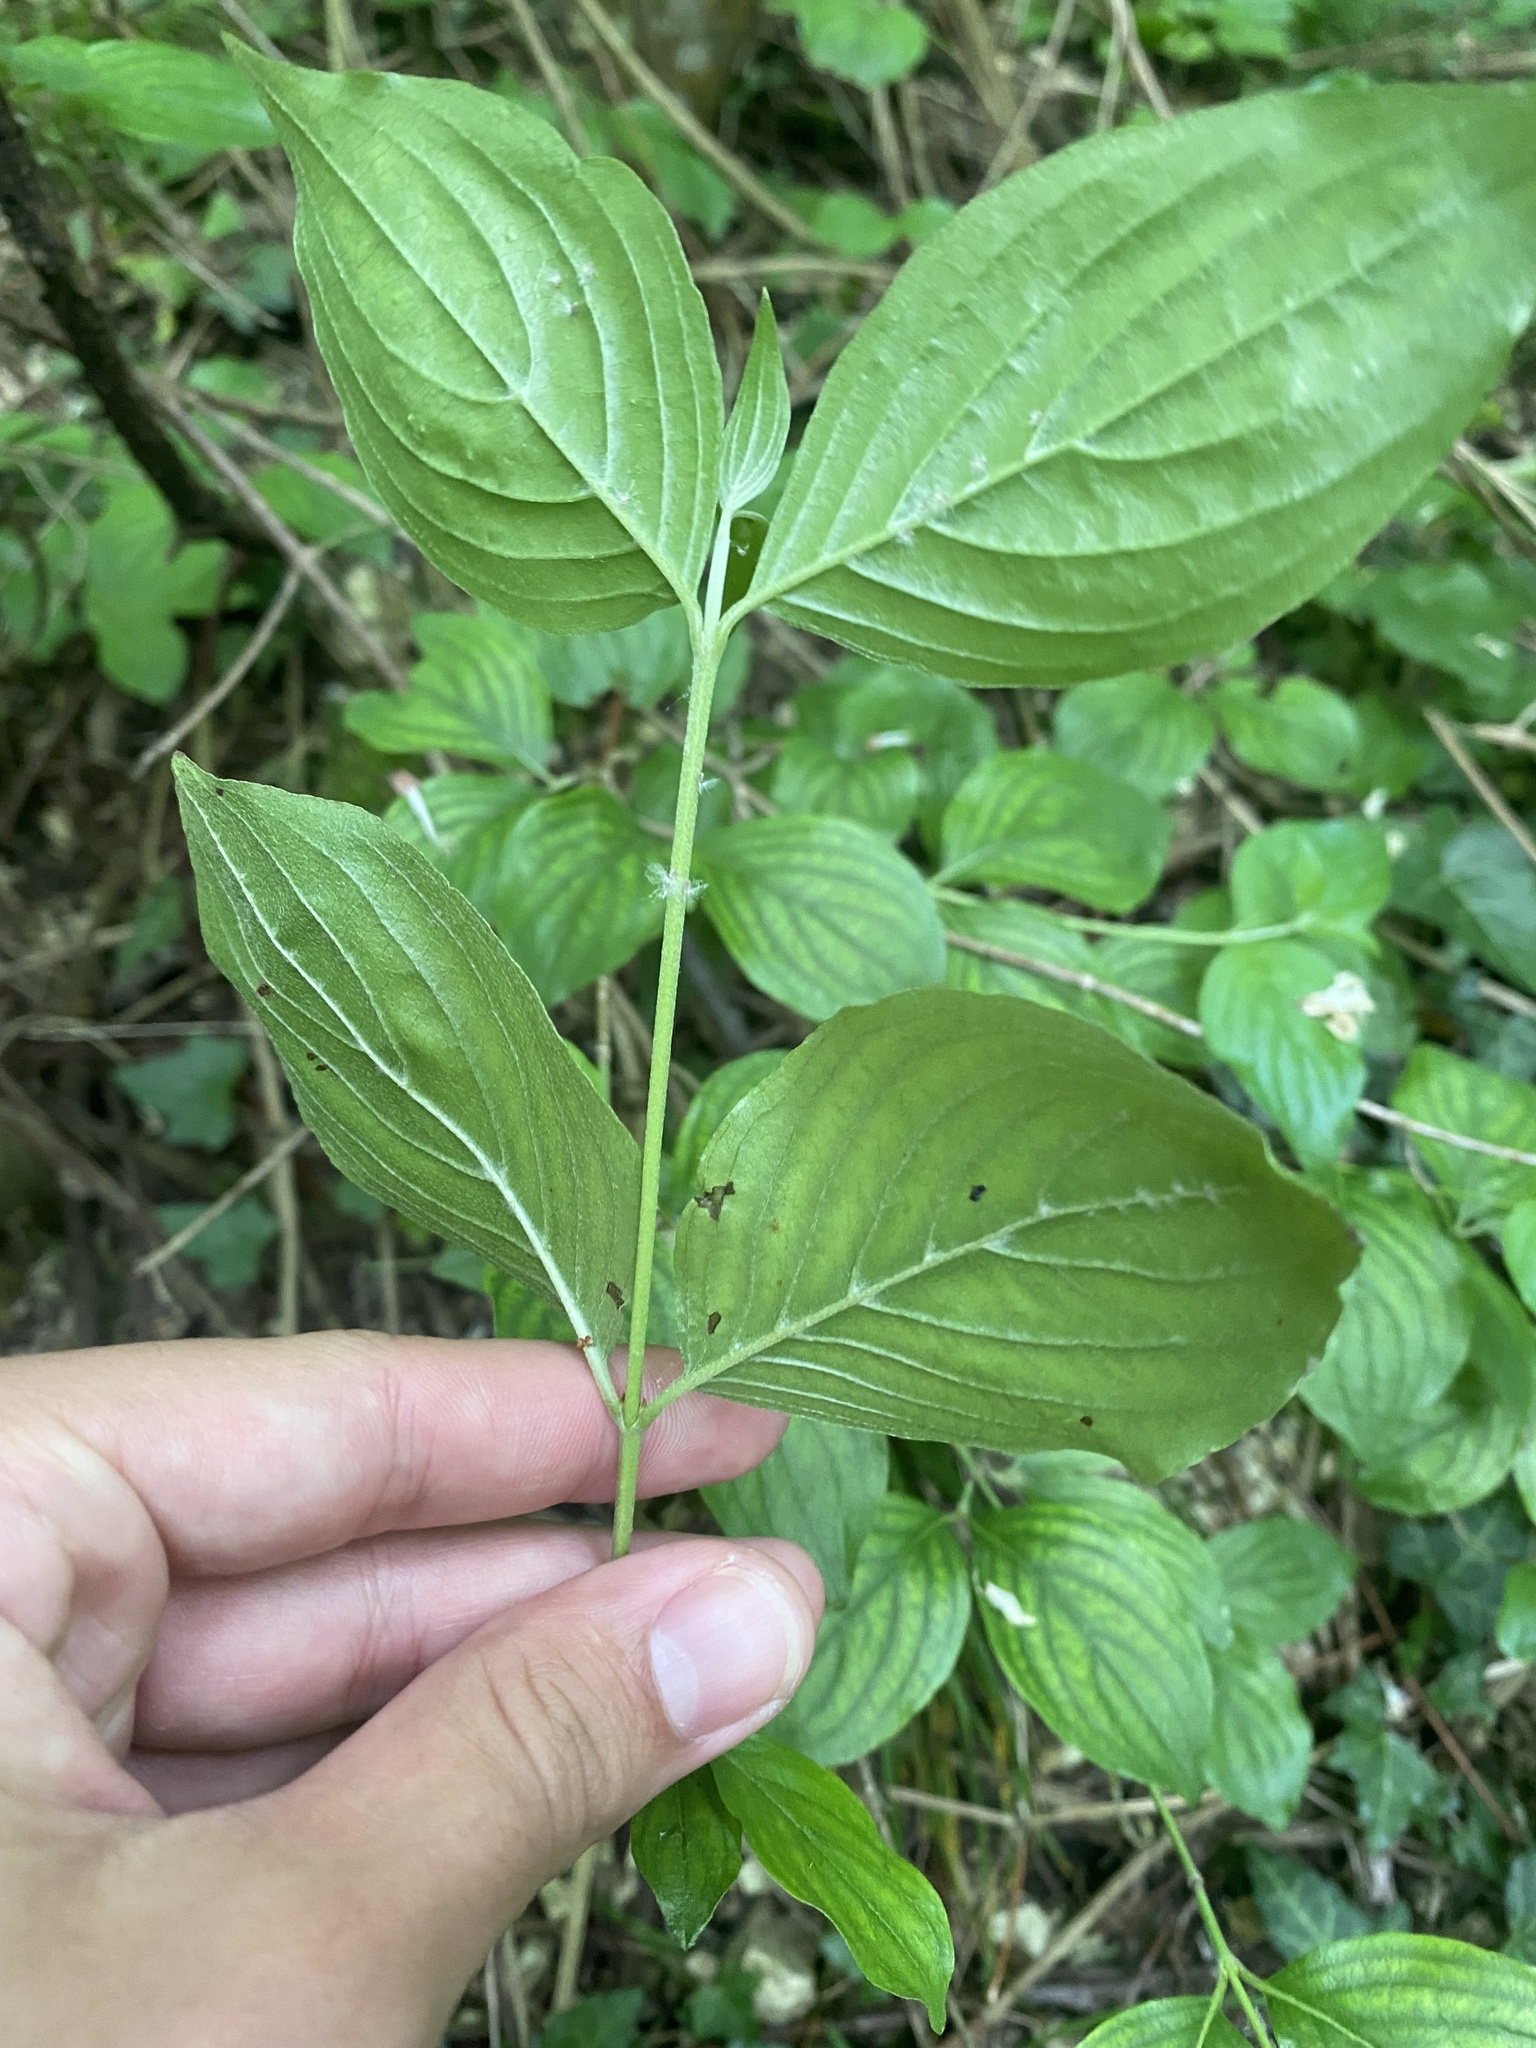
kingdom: Plantae
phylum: Tracheophyta
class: Magnoliopsida
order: Cornales
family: Cornaceae
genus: Cornus
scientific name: Cornus mas
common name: Cornelian-cherry
